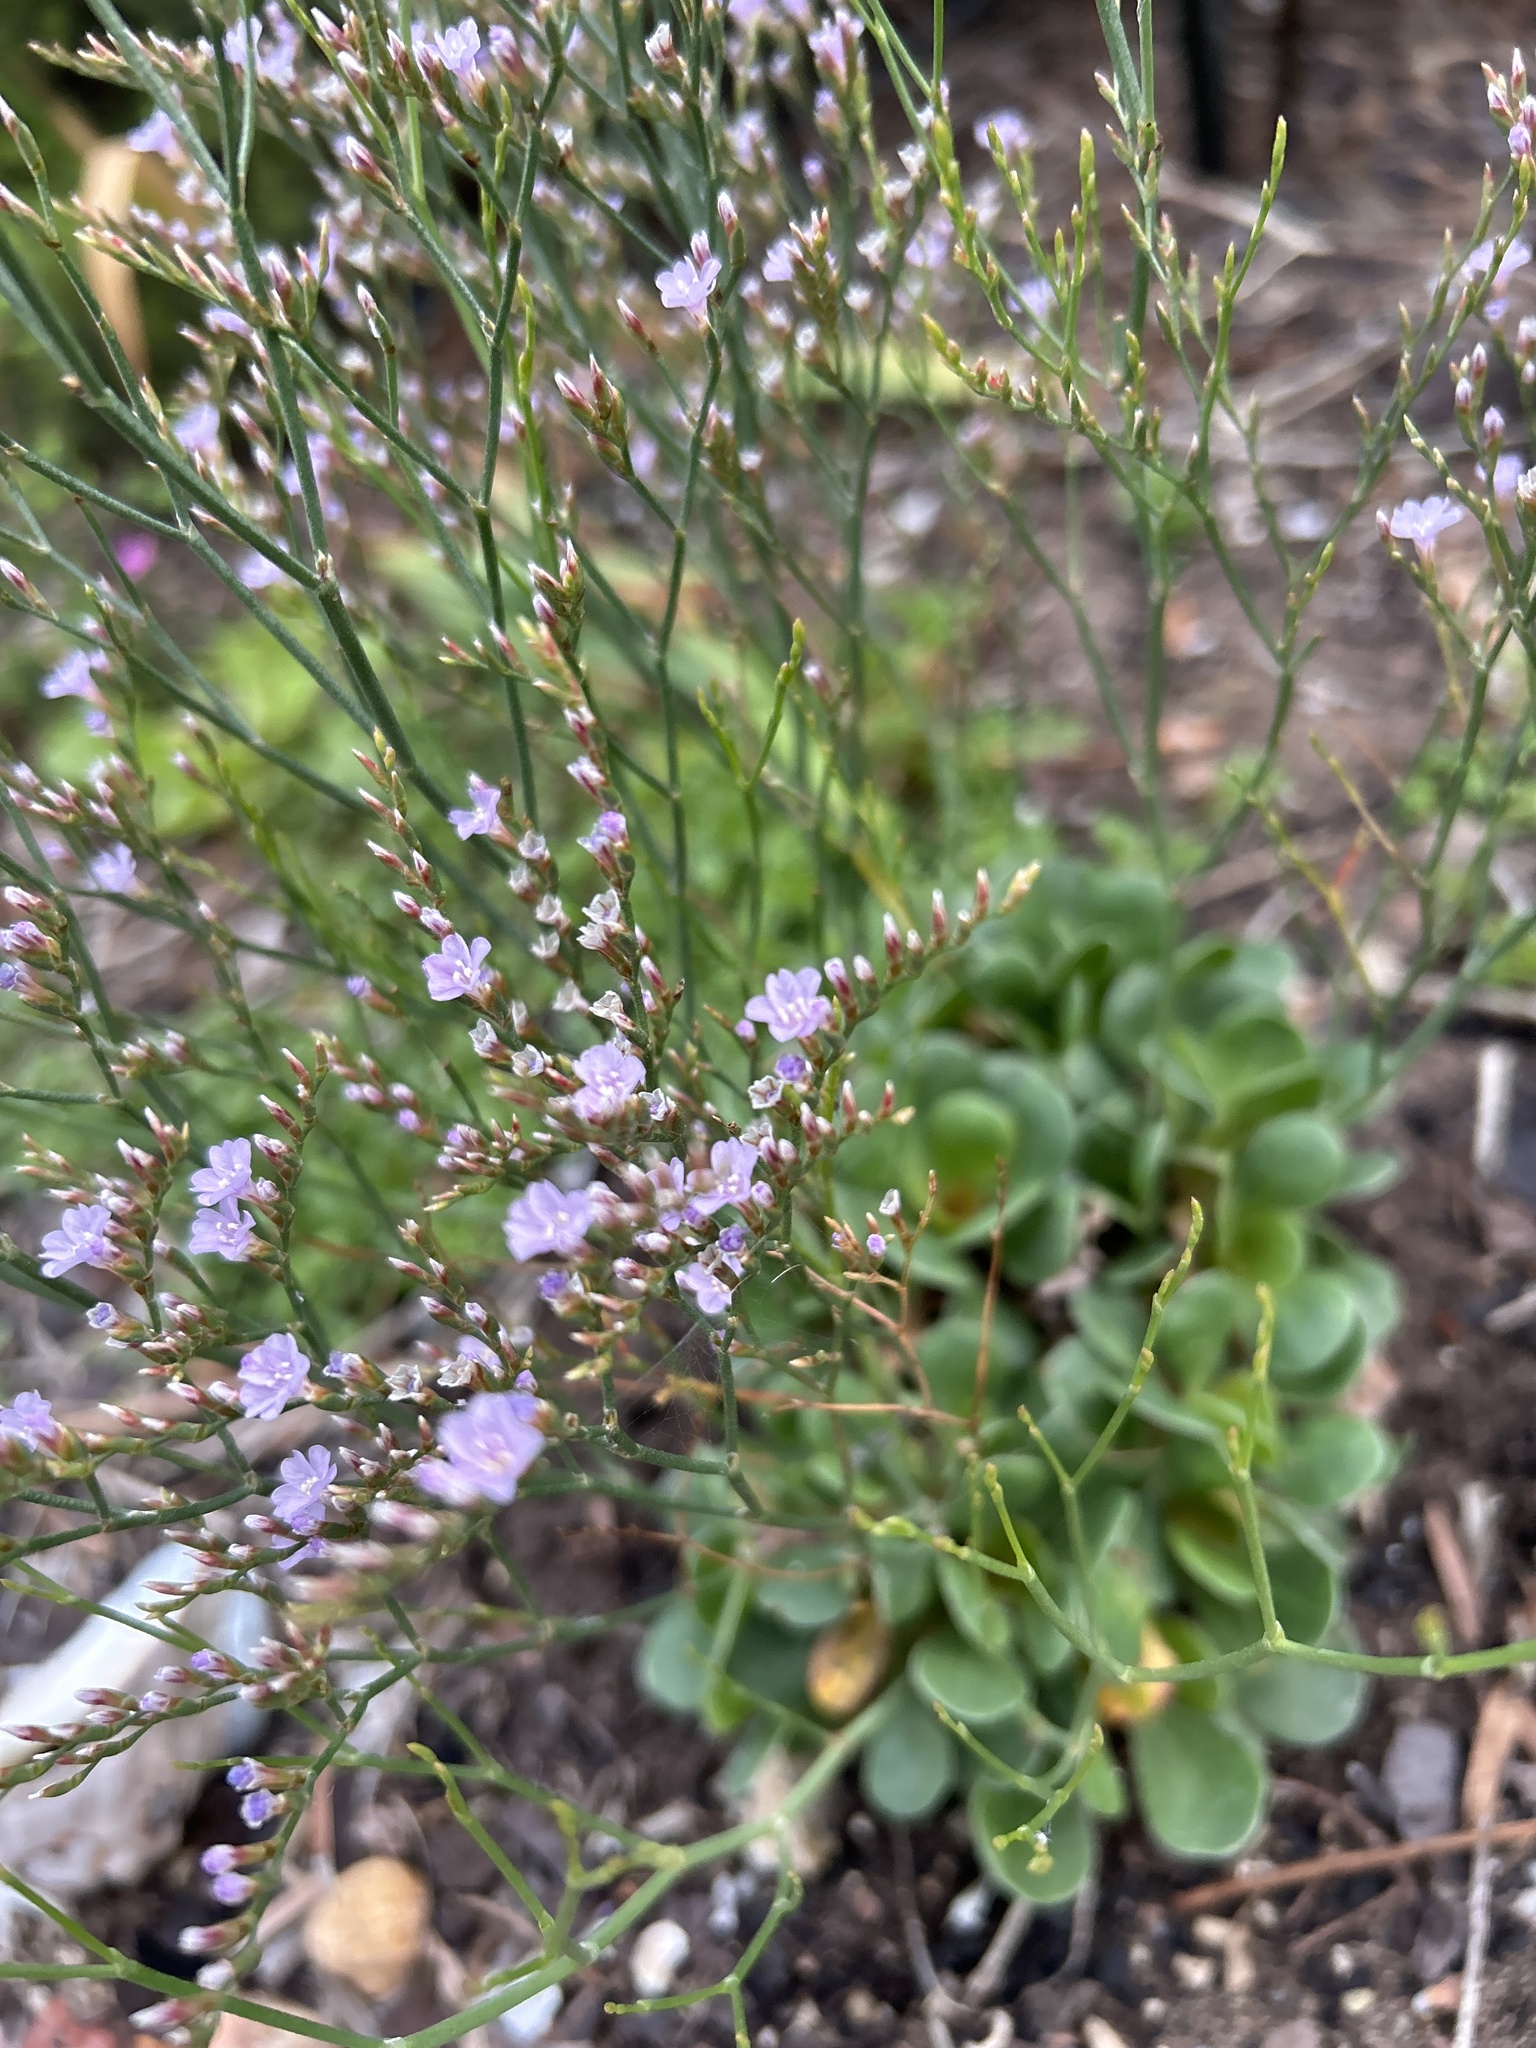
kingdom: Plantae
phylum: Tracheophyta
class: Magnoliopsida
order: Caryophyllales
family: Plumbaginaceae
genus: Limonium
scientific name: Limonium scabrum
